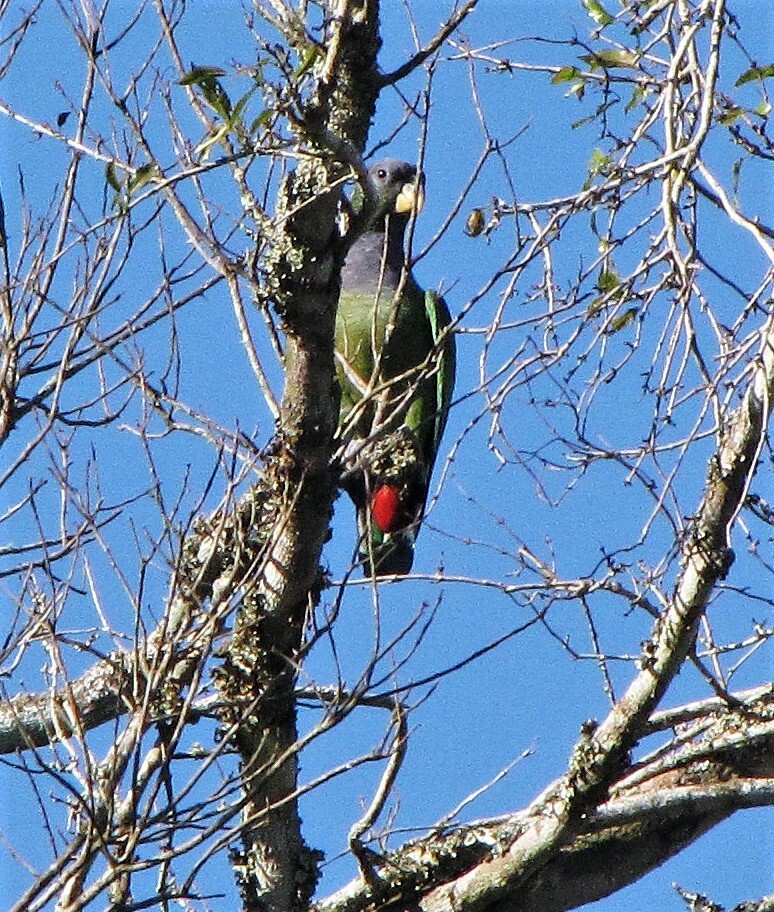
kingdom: Animalia
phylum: Chordata
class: Aves
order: Psittaciformes
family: Psittacidae
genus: Pionus
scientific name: Pionus maximiliani
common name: Scaly-headed parrot
